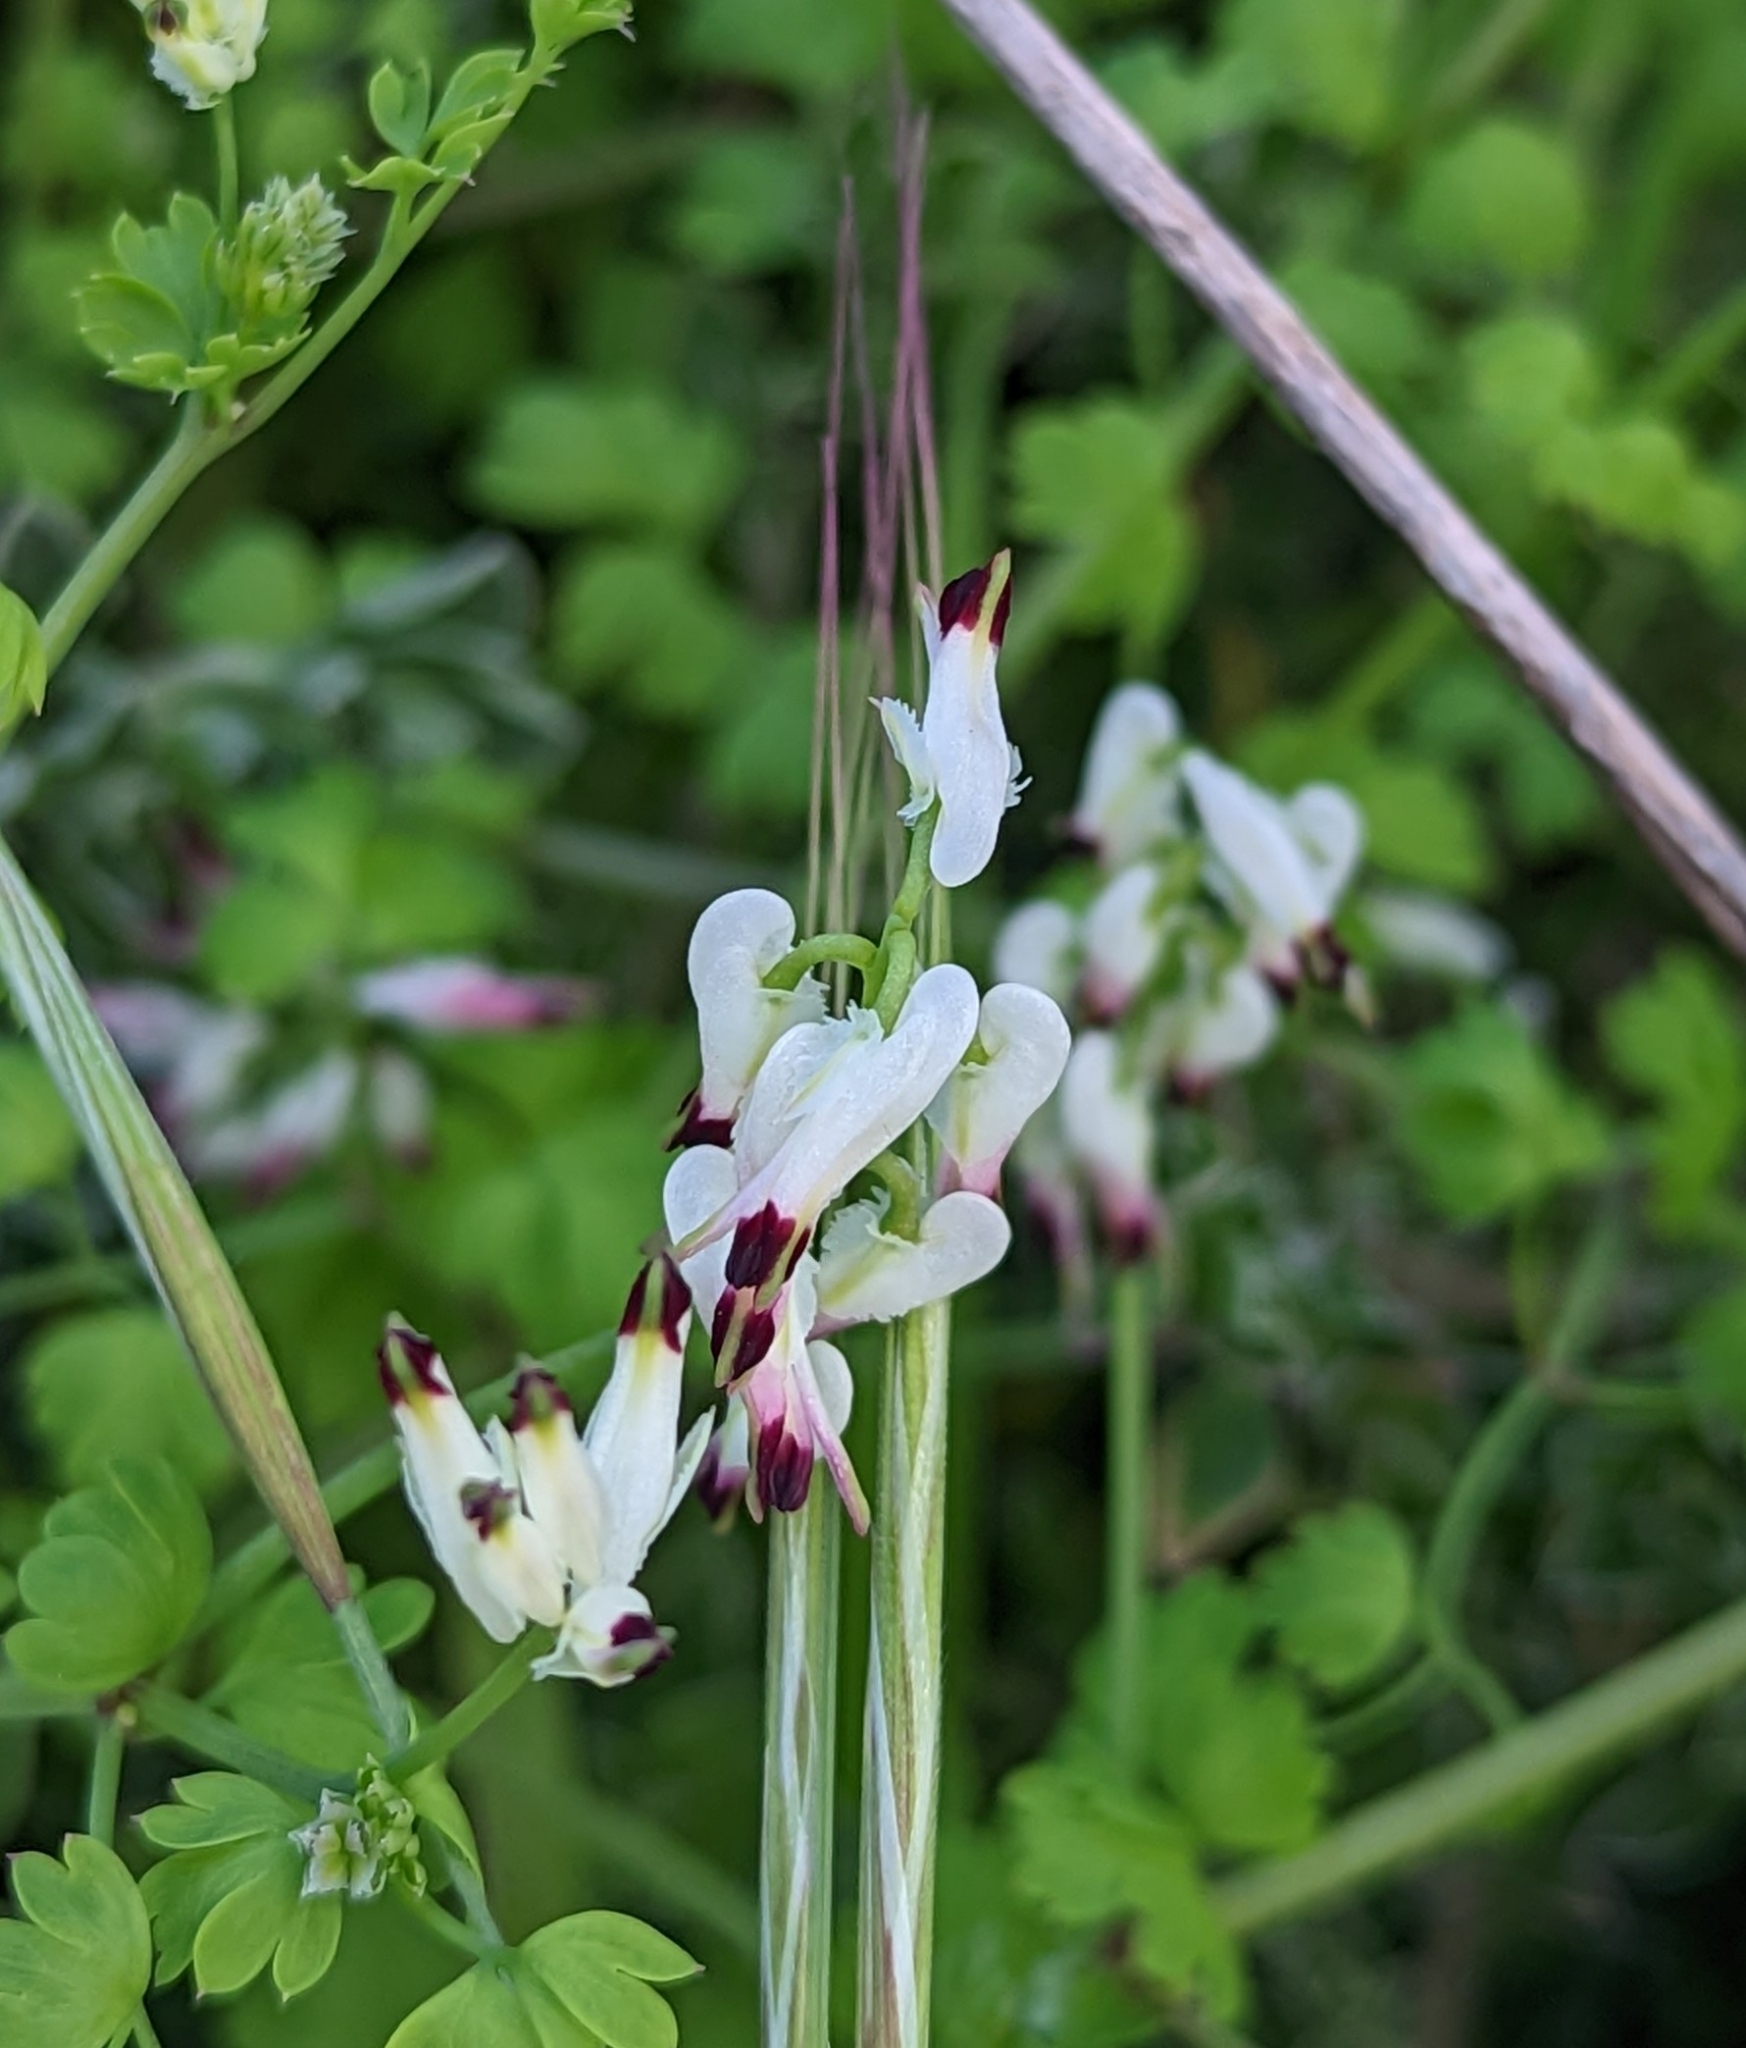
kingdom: Plantae
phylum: Tracheophyta
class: Magnoliopsida
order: Ranunculales
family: Papaveraceae
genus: Fumaria
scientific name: Fumaria capreolata
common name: White ramping-fumitory
